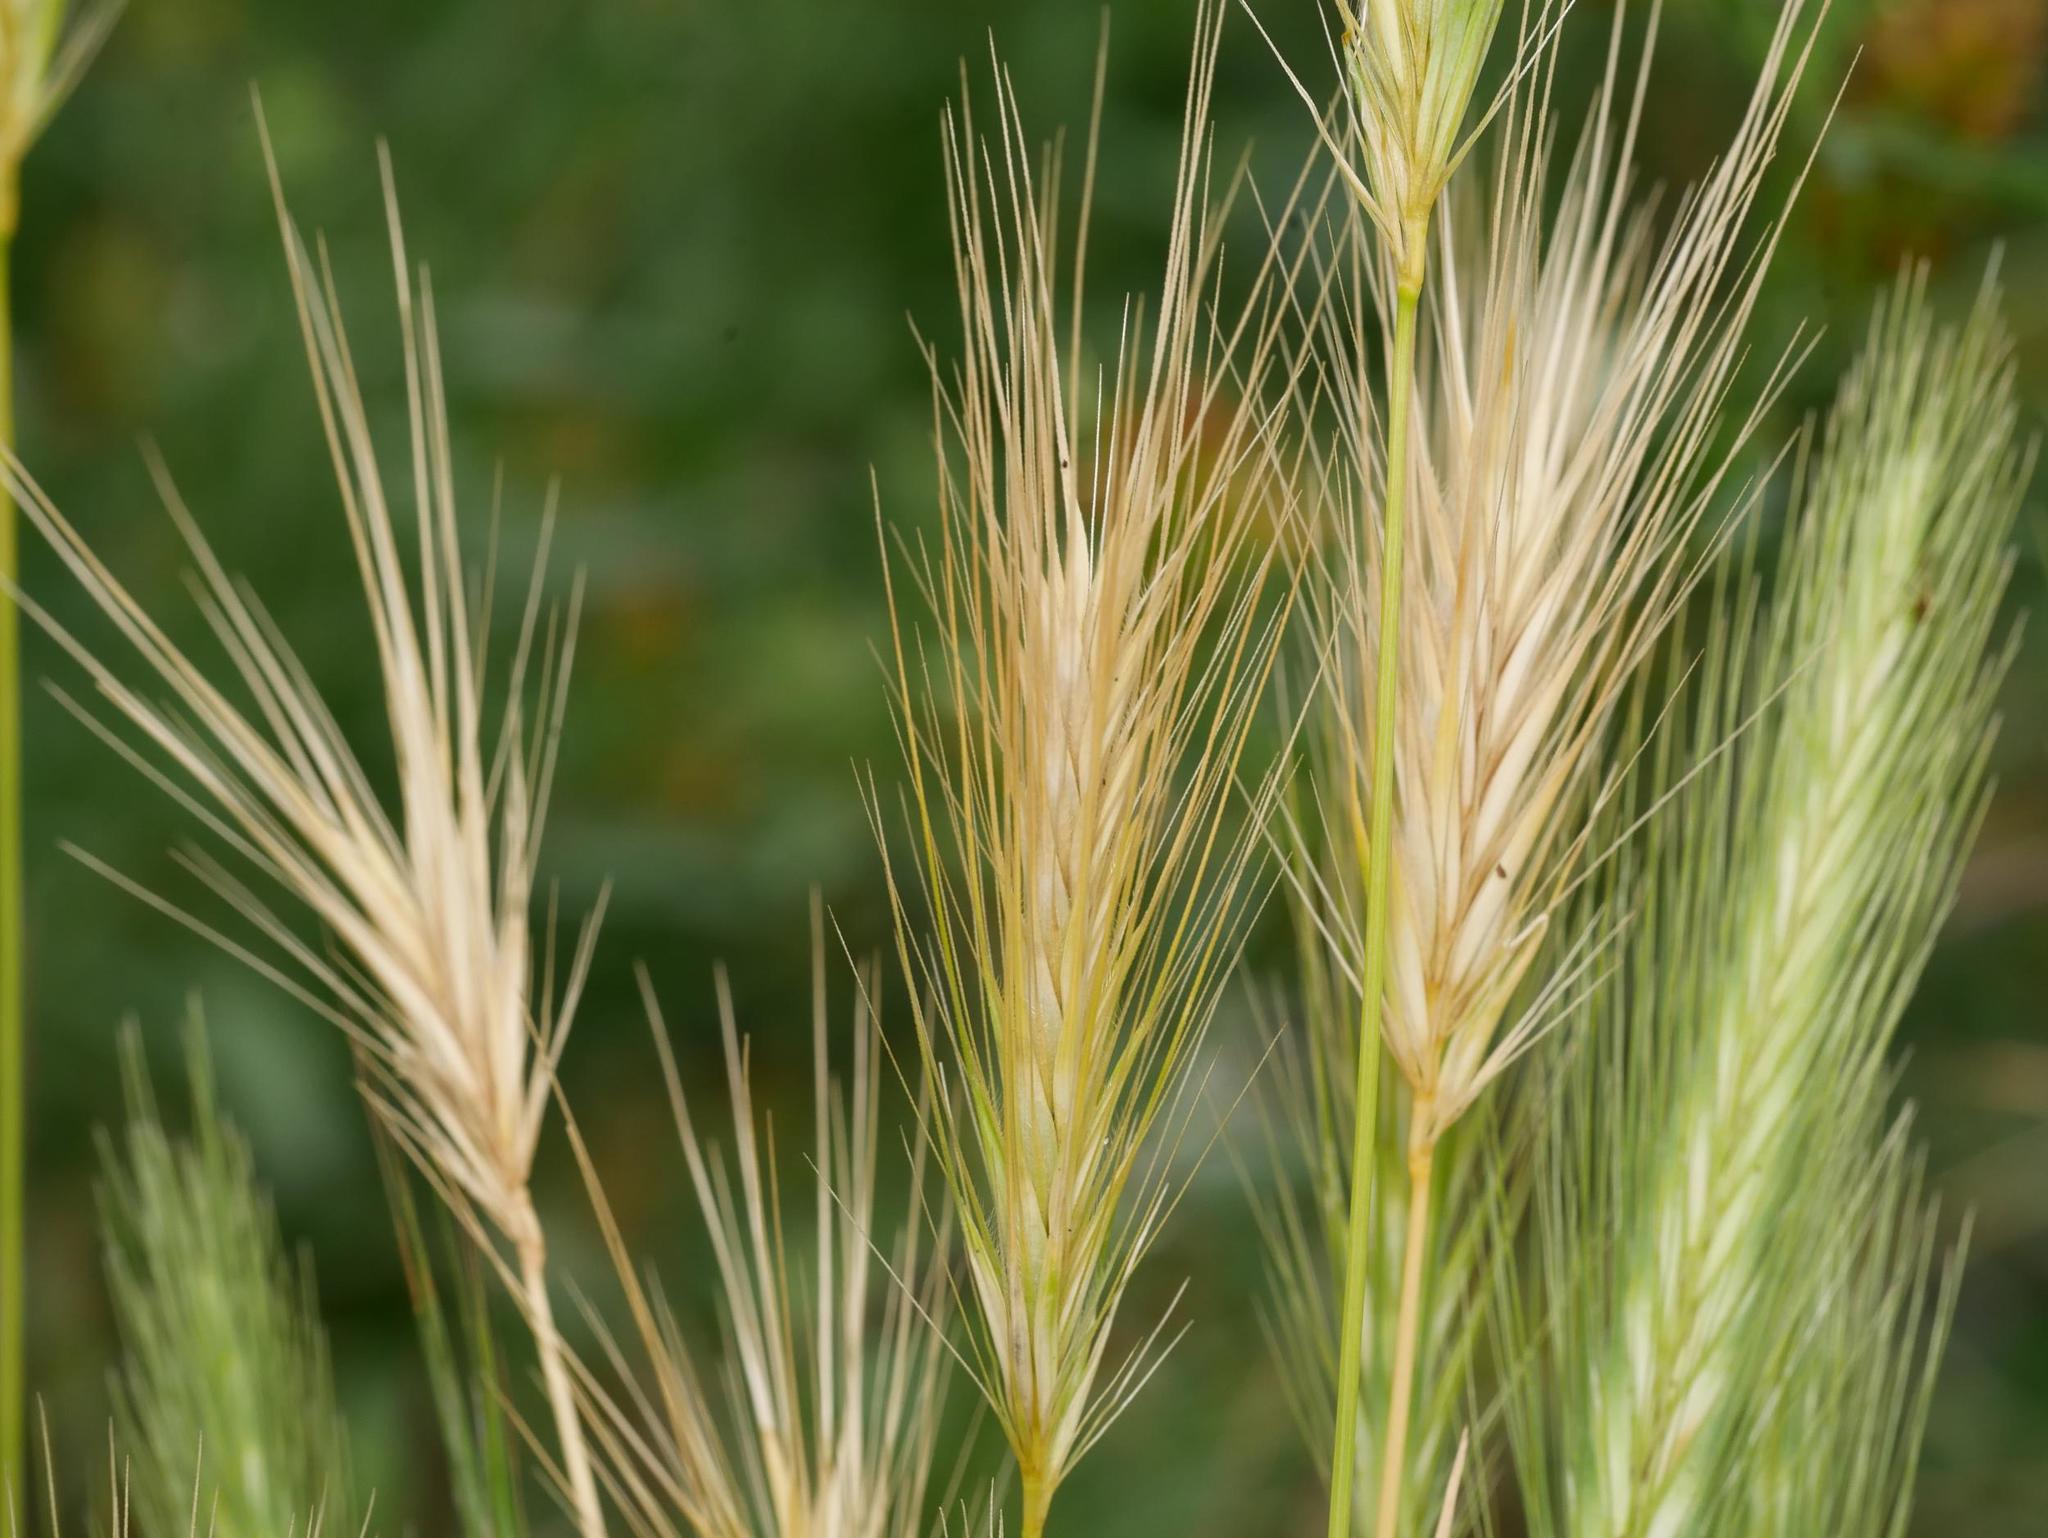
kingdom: Plantae
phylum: Tracheophyta
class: Liliopsida
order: Poales
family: Poaceae
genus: Hordeum
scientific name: Hordeum murinum
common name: Wall barley
